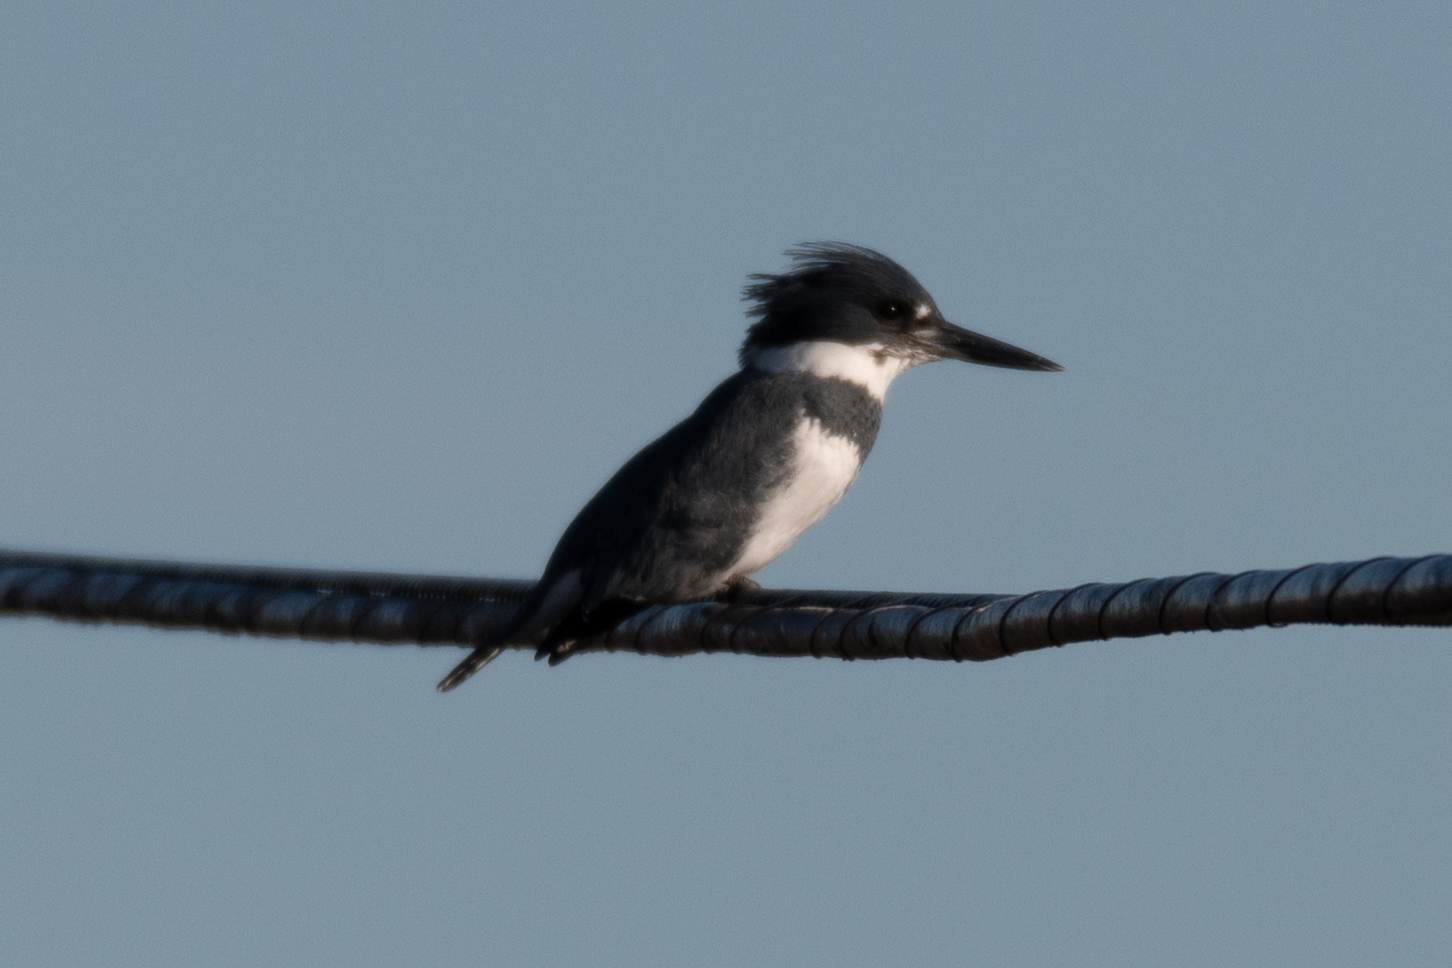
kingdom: Animalia
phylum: Chordata
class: Aves
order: Coraciiformes
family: Alcedinidae
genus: Megaceryle
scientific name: Megaceryle alcyon
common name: Belted kingfisher
